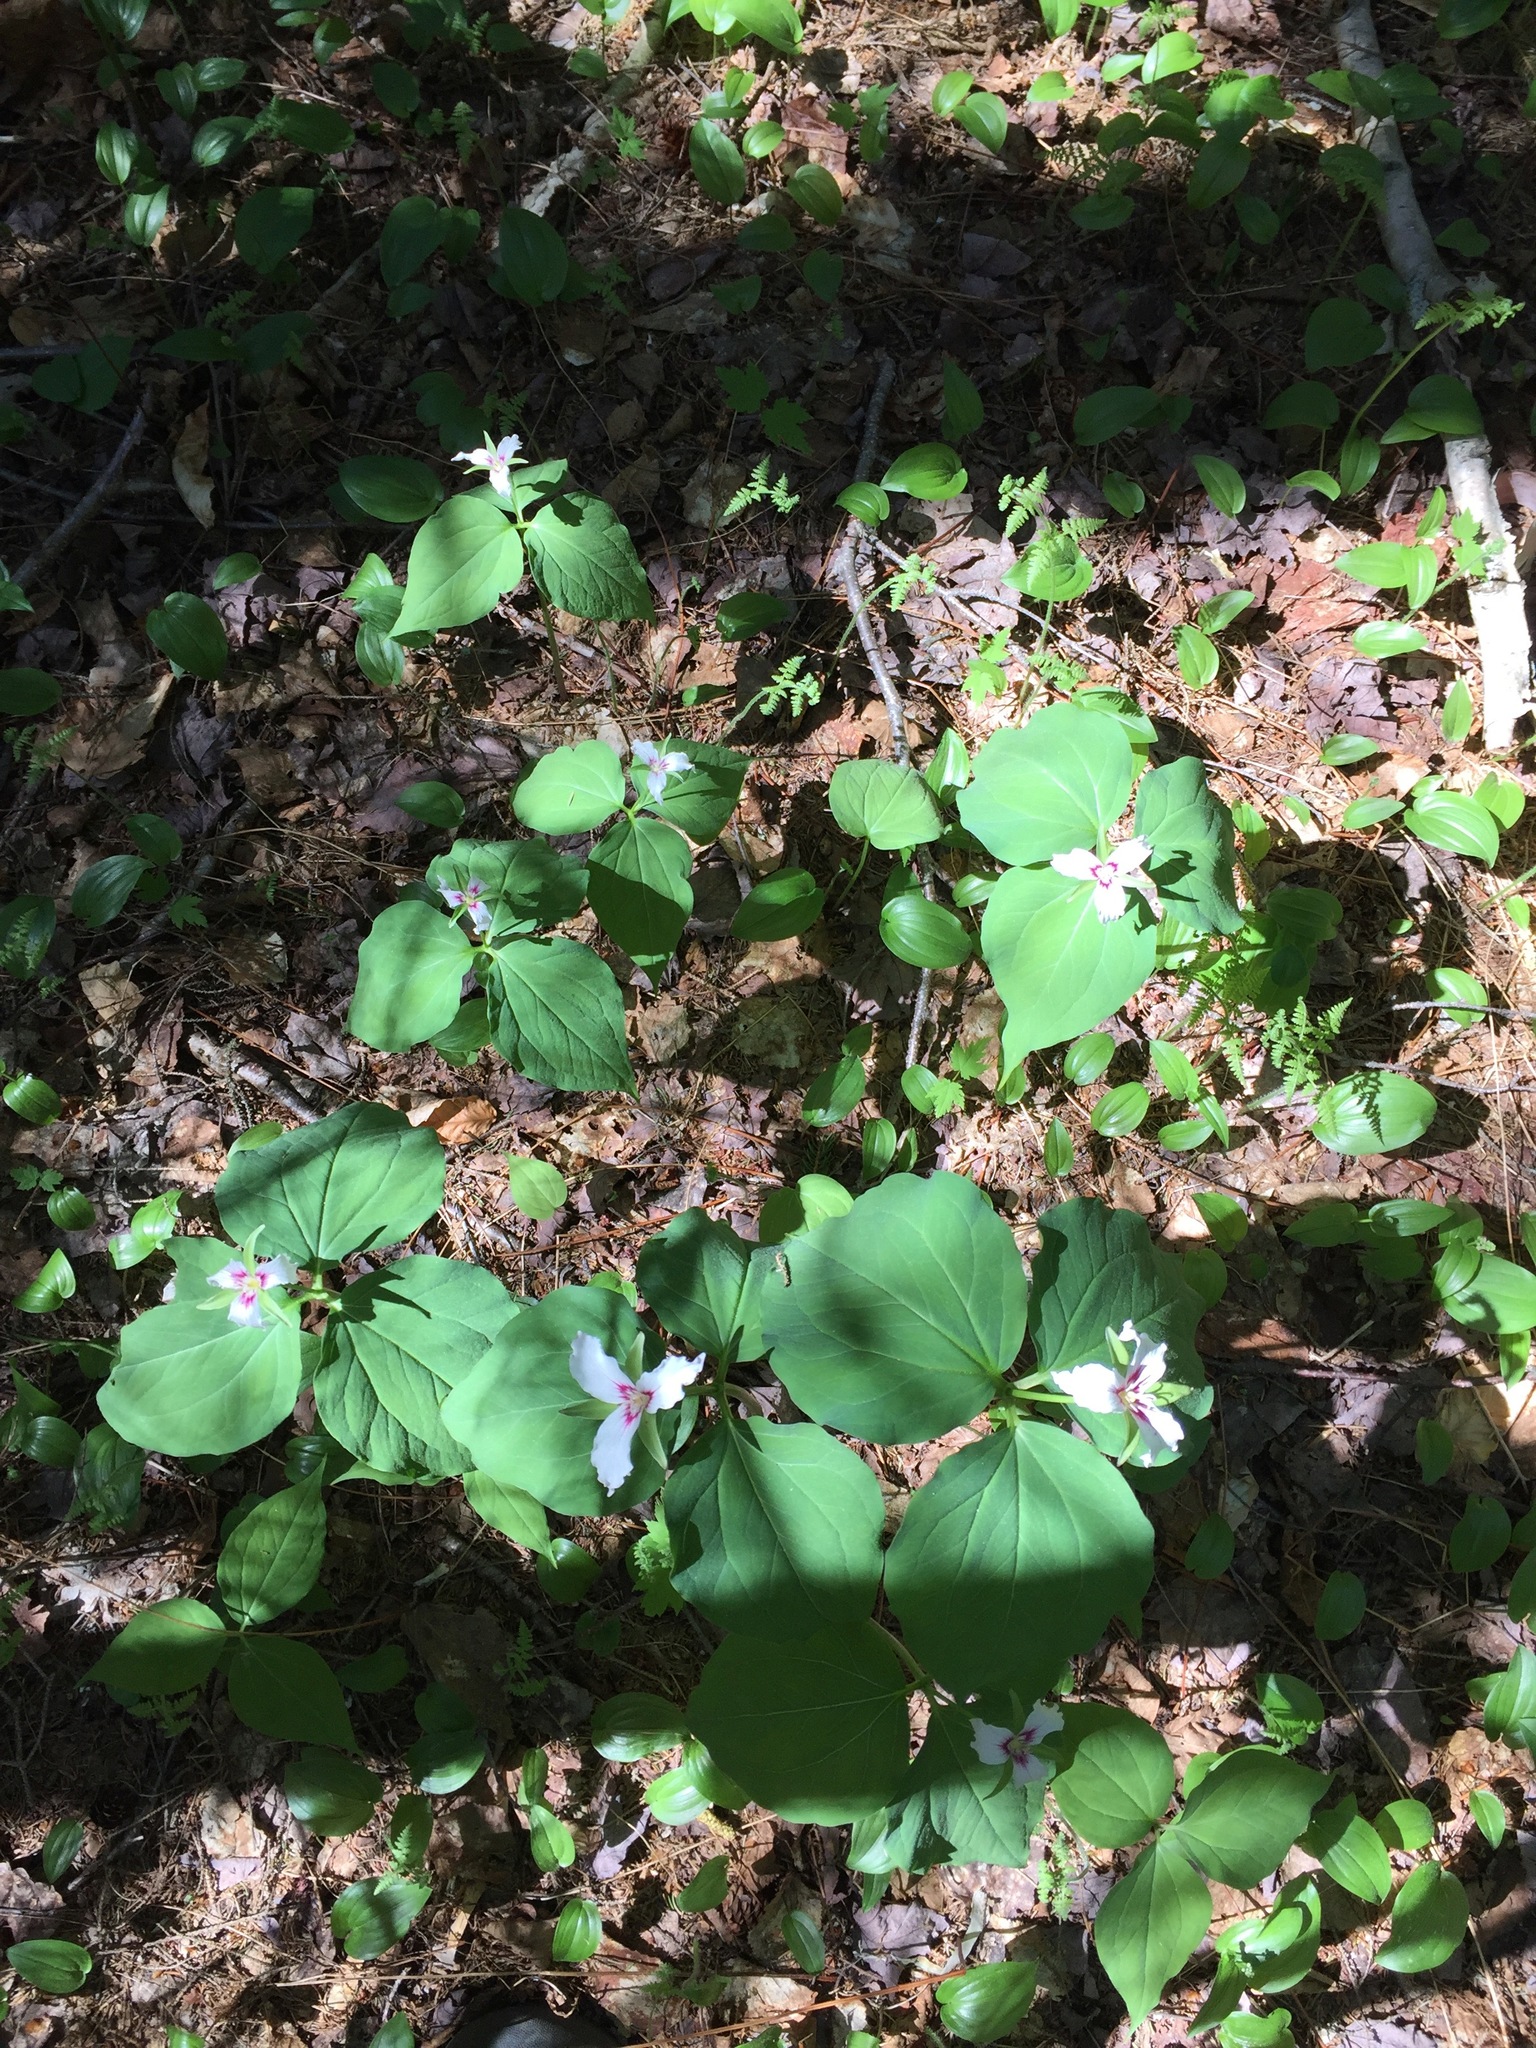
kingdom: Plantae
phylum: Tracheophyta
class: Liliopsida
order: Liliales
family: Melanthiaceae
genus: Trillium
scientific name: Trillium undulatum
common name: Paint trillium
